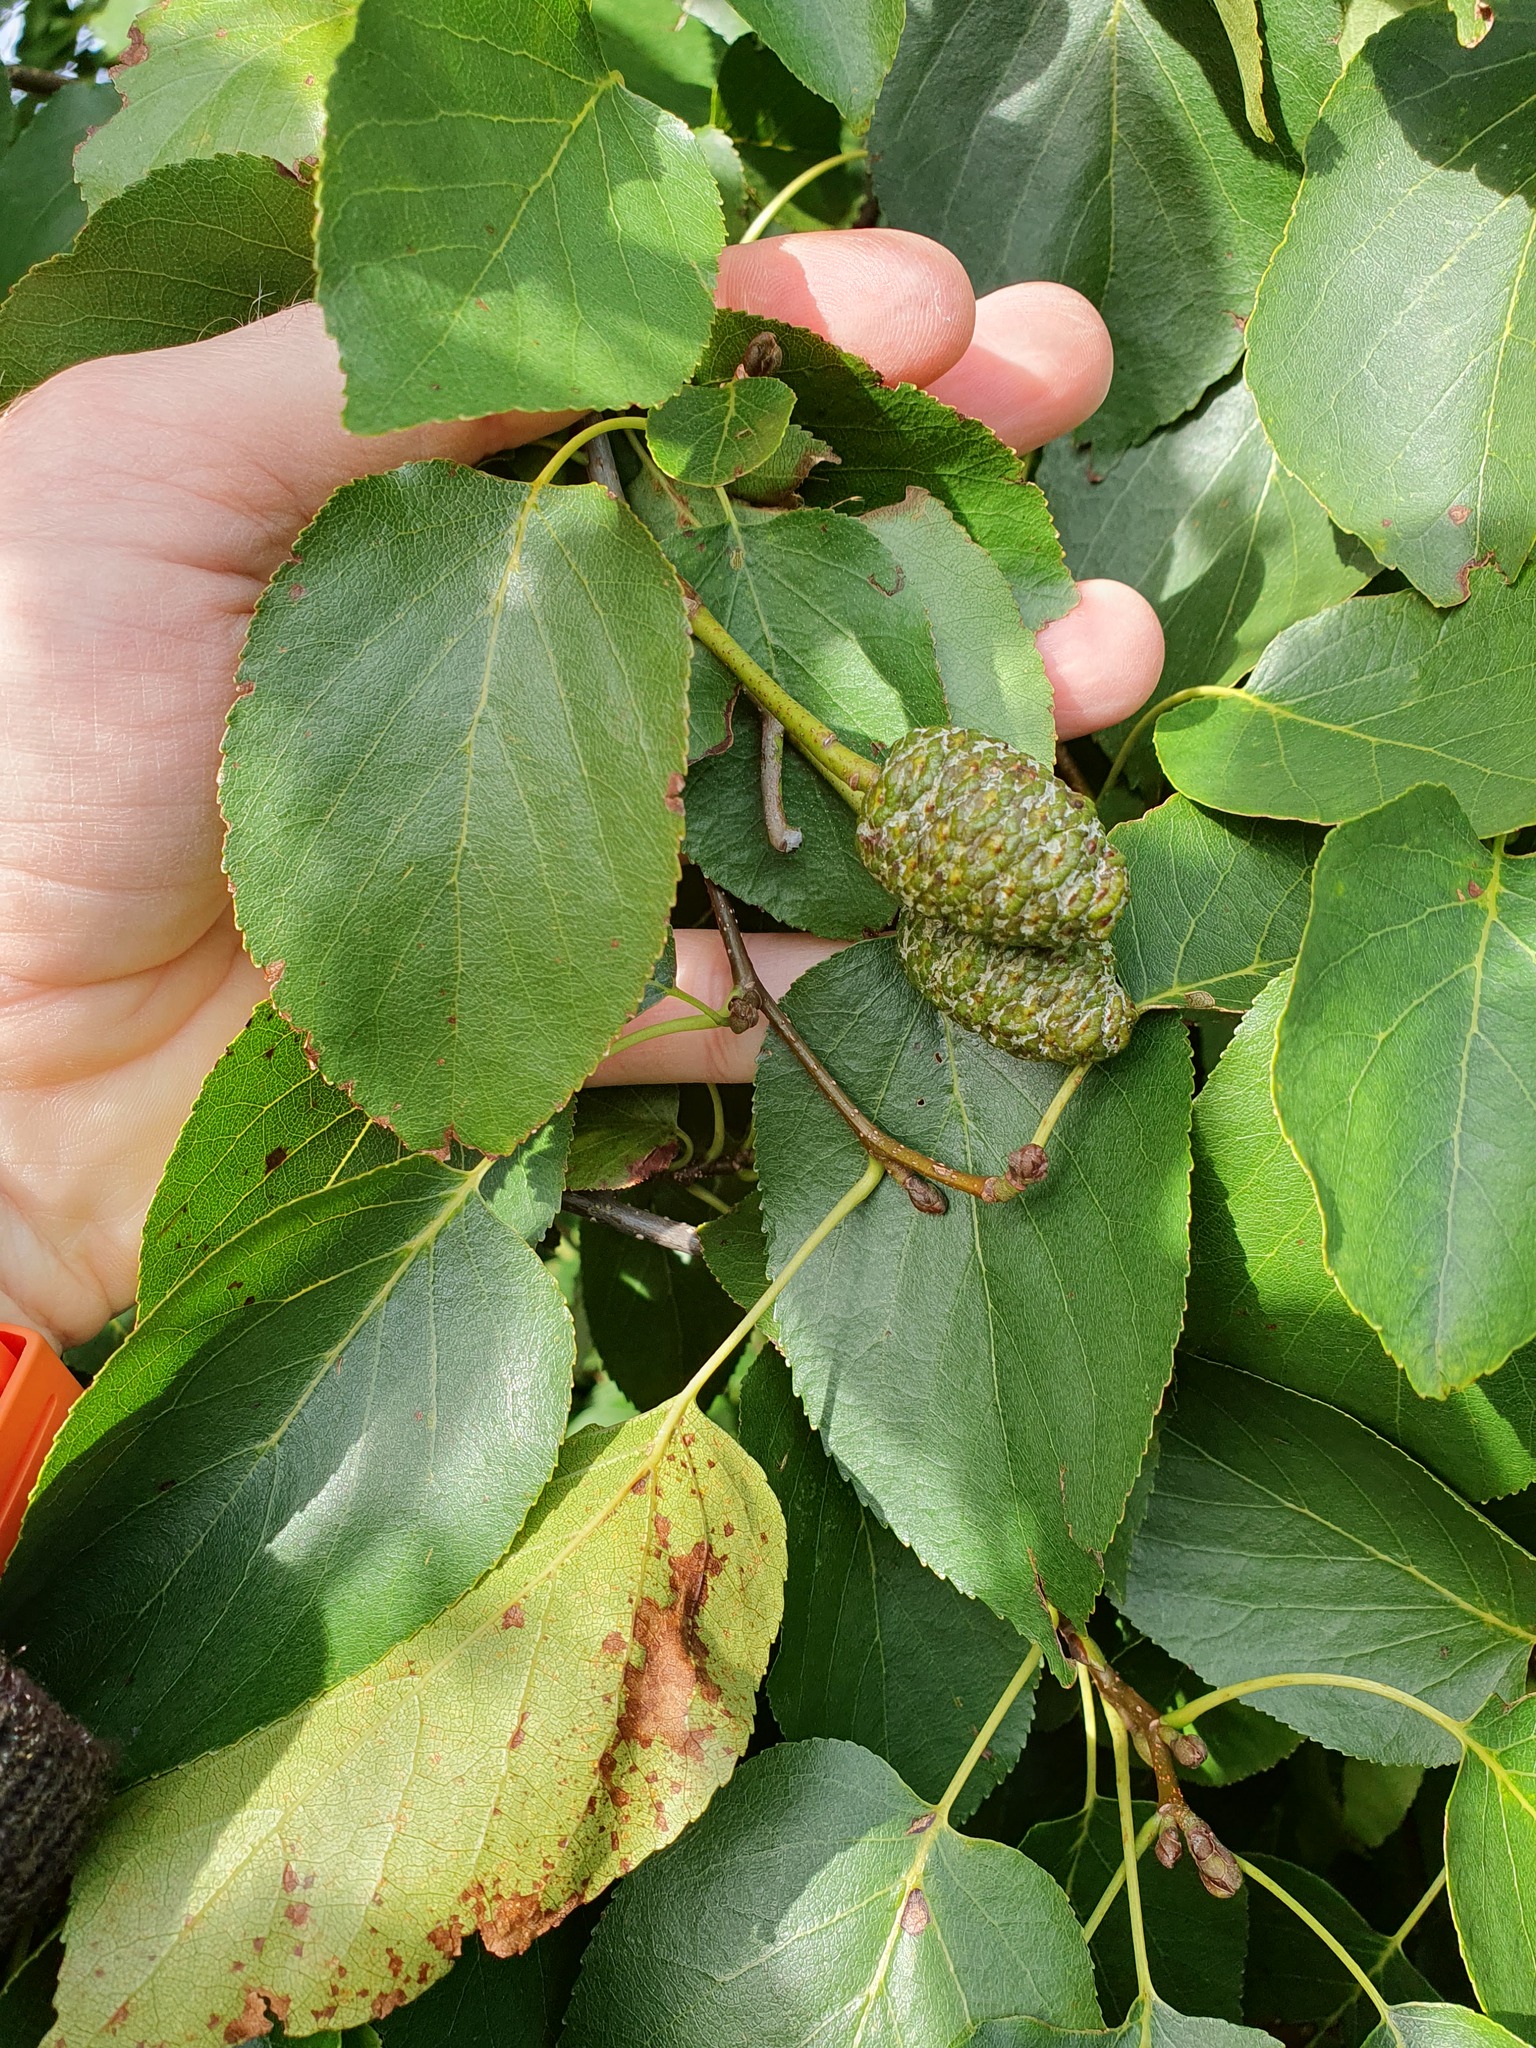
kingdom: Plantae
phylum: Tracheophyta
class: Magnoliopsida
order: Fagales
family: Betulaceae
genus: Alnus
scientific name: Alnus cordata
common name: Italian alder
